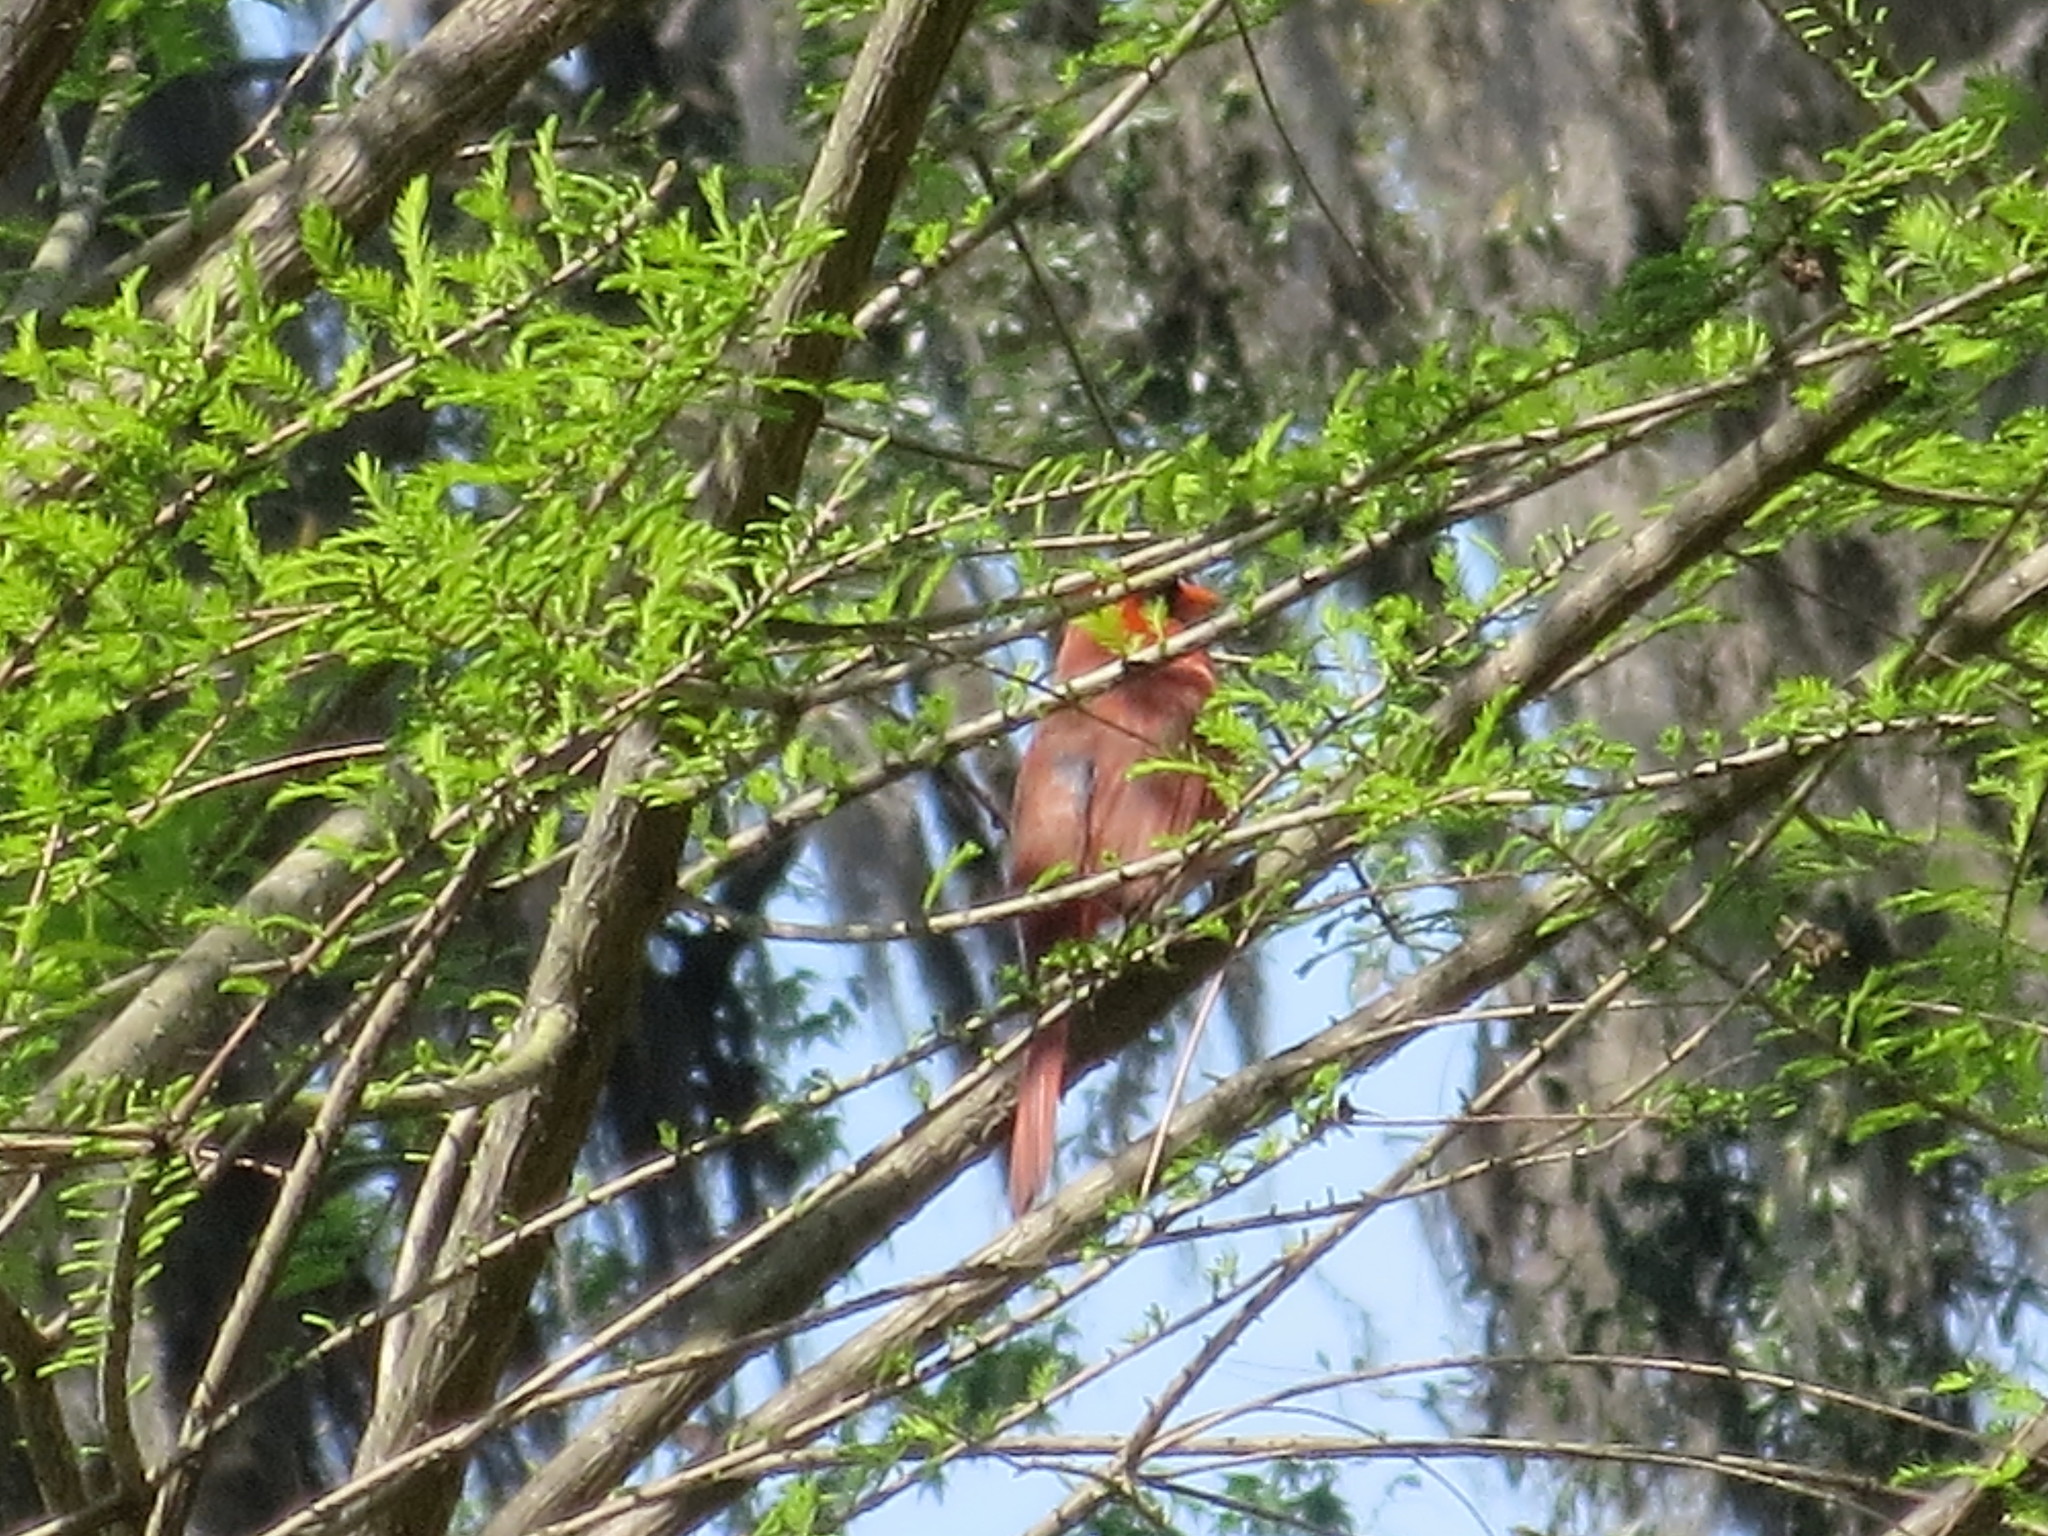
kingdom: Animalia
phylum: Chordata
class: Aves
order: Passeriformes
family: Cardinalidae
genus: Cardinalis
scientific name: Cardinalis cardinalis
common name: Northern cardinal
